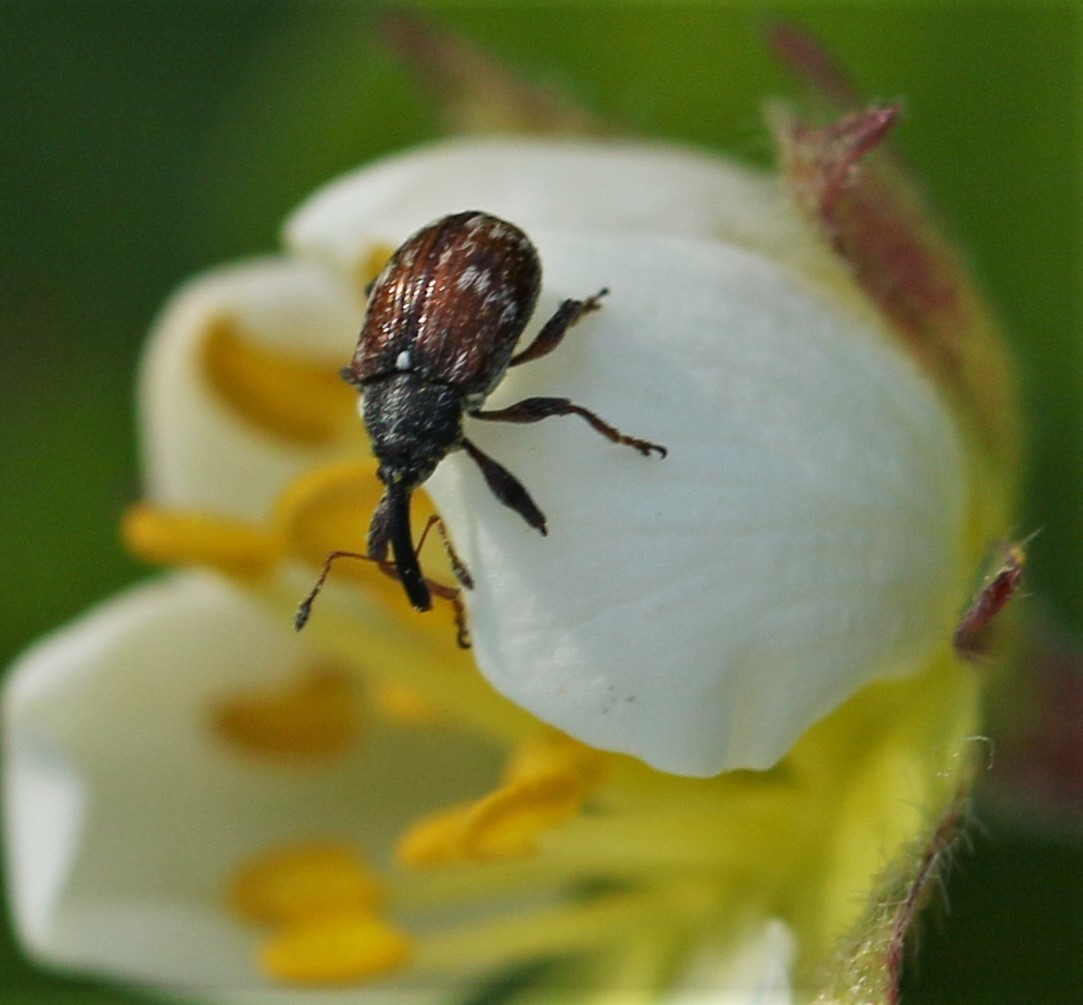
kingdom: Animalia
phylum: Arthropoda
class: Insecta
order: Coleoptera
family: Curculionidae
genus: Anthonomus
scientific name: Anthonomus signatus
